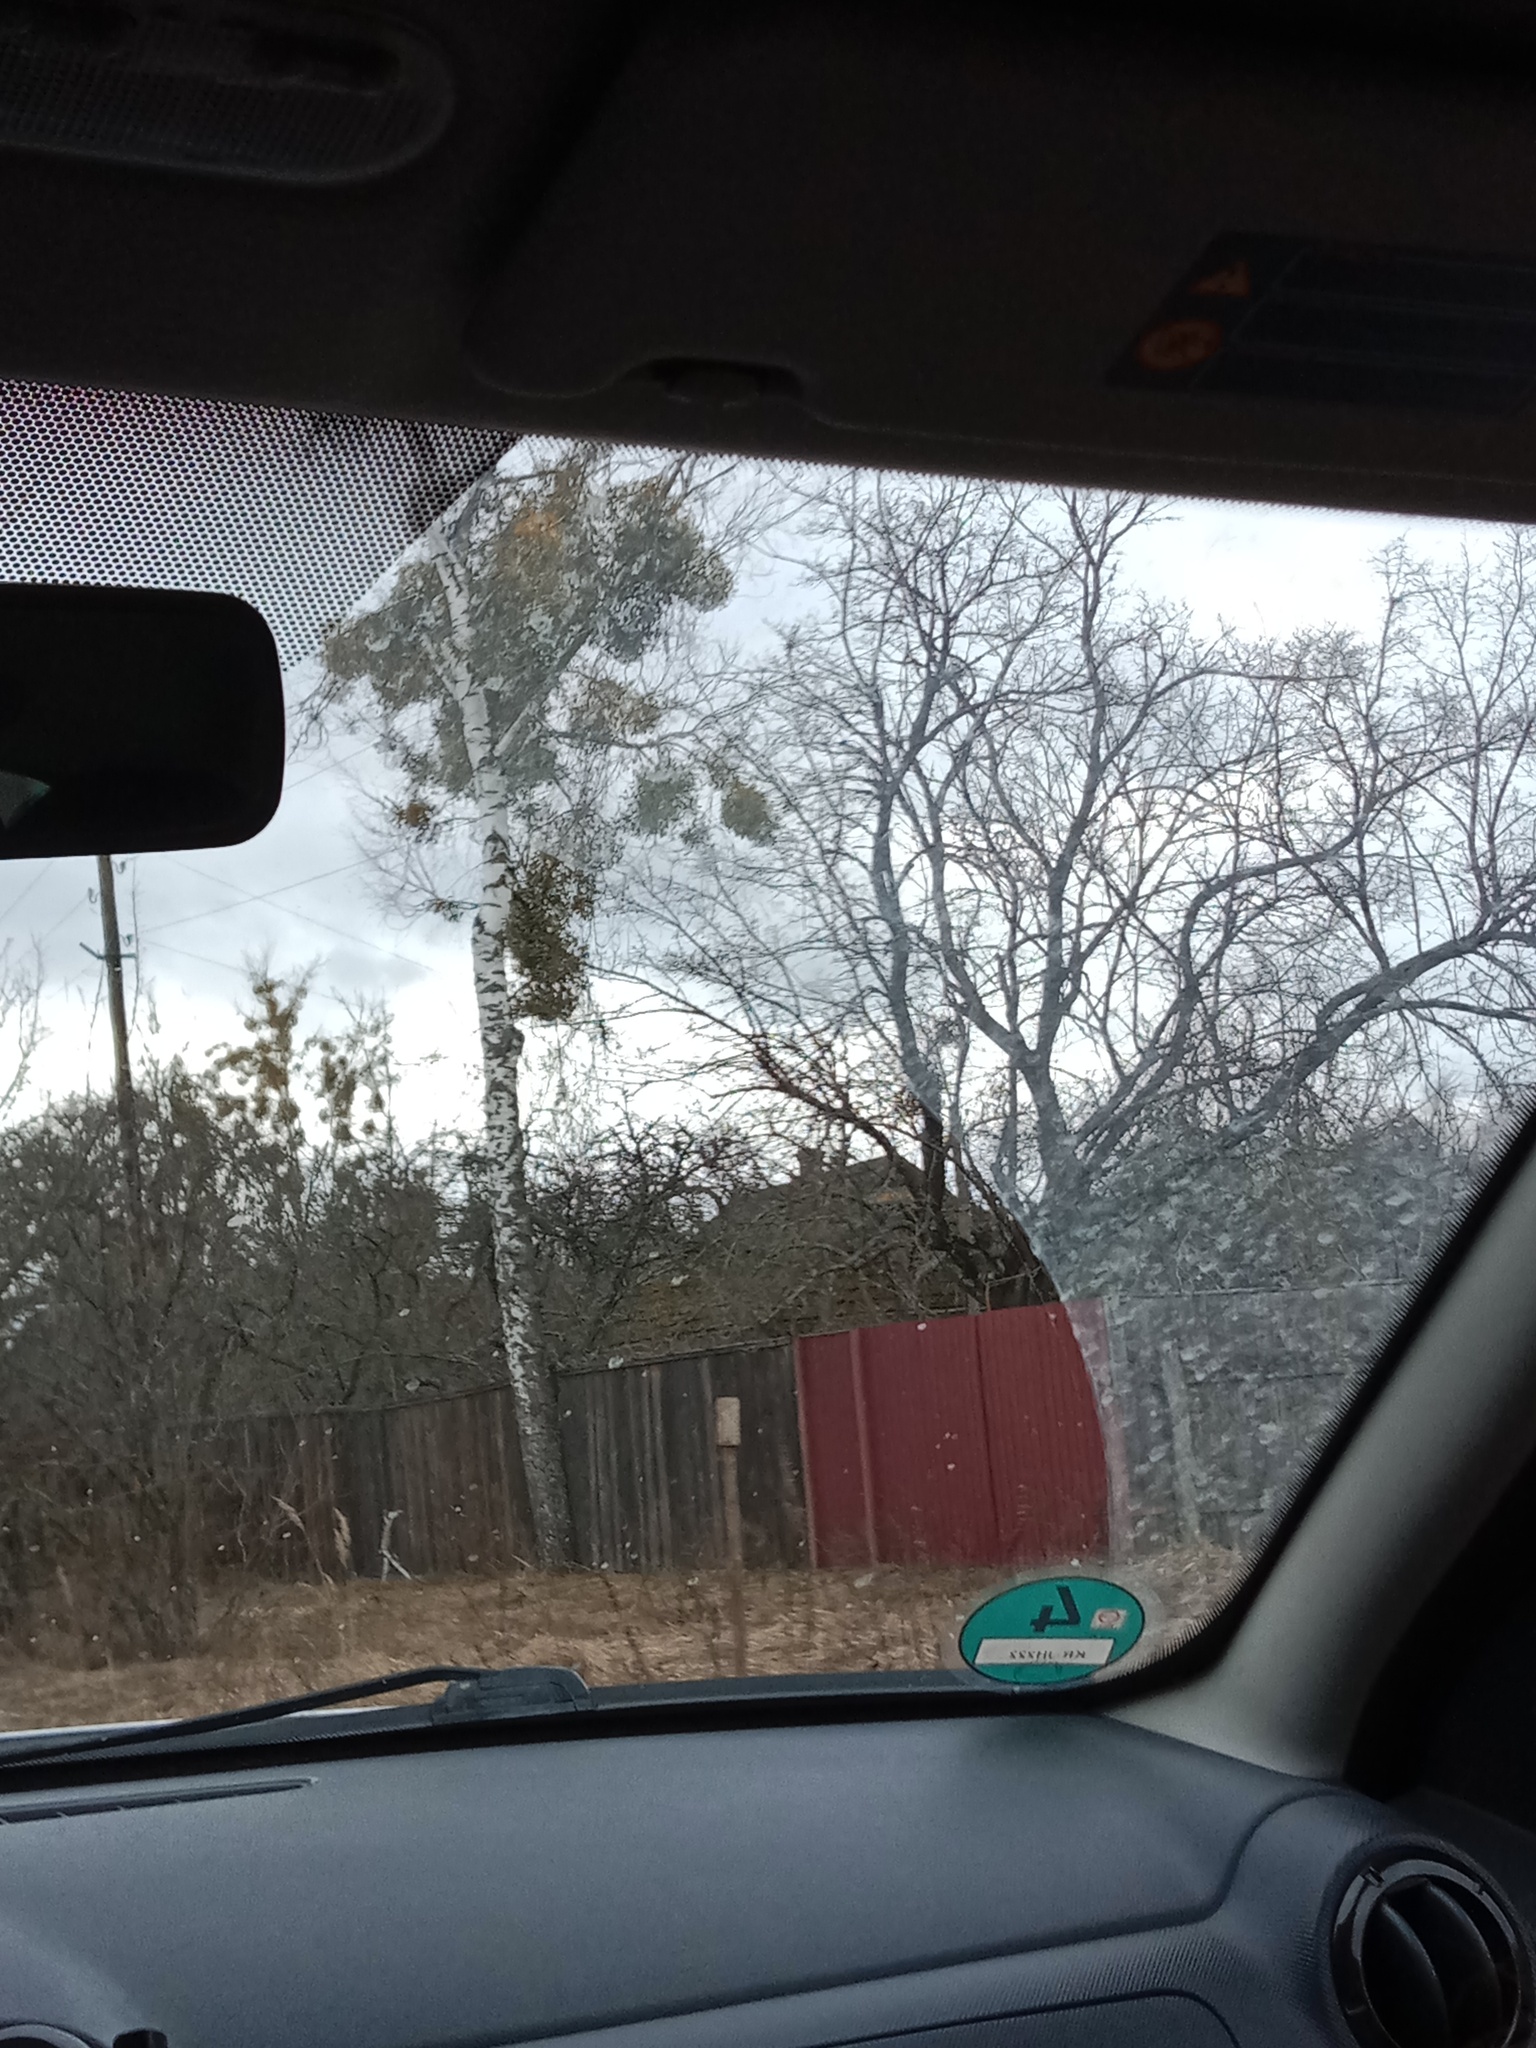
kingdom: Plantae
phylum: Tracheophyta
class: Magnoliopsida
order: Santalales
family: Viscaceae
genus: Viscum
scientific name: Viscum album
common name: Mistletoe
